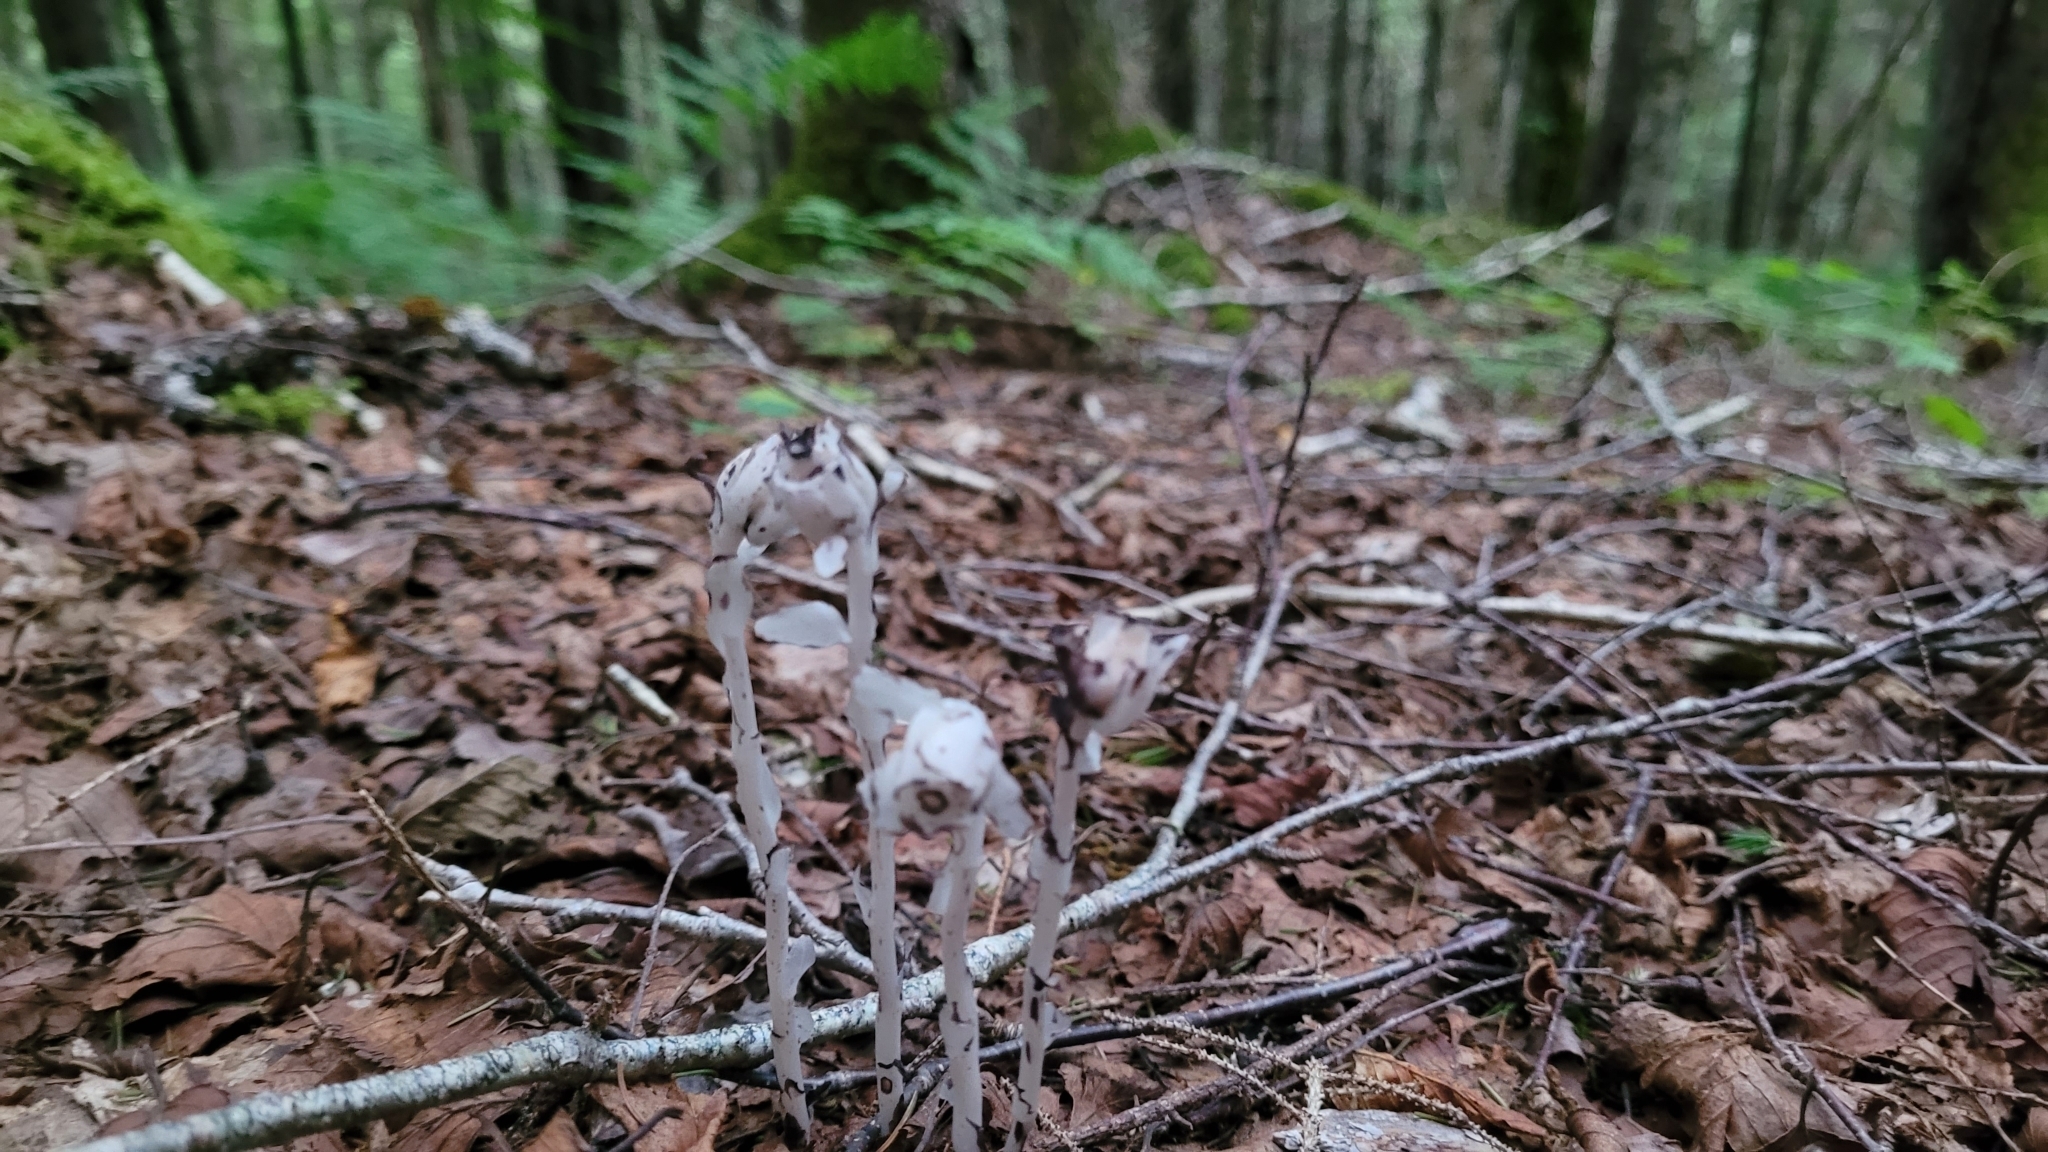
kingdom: Plantae
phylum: Tracheophyta
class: Magnoliopsida
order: Ericales
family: Ericaceae
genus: Monotropa
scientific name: Monotropa uniflora
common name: Convulsion root
